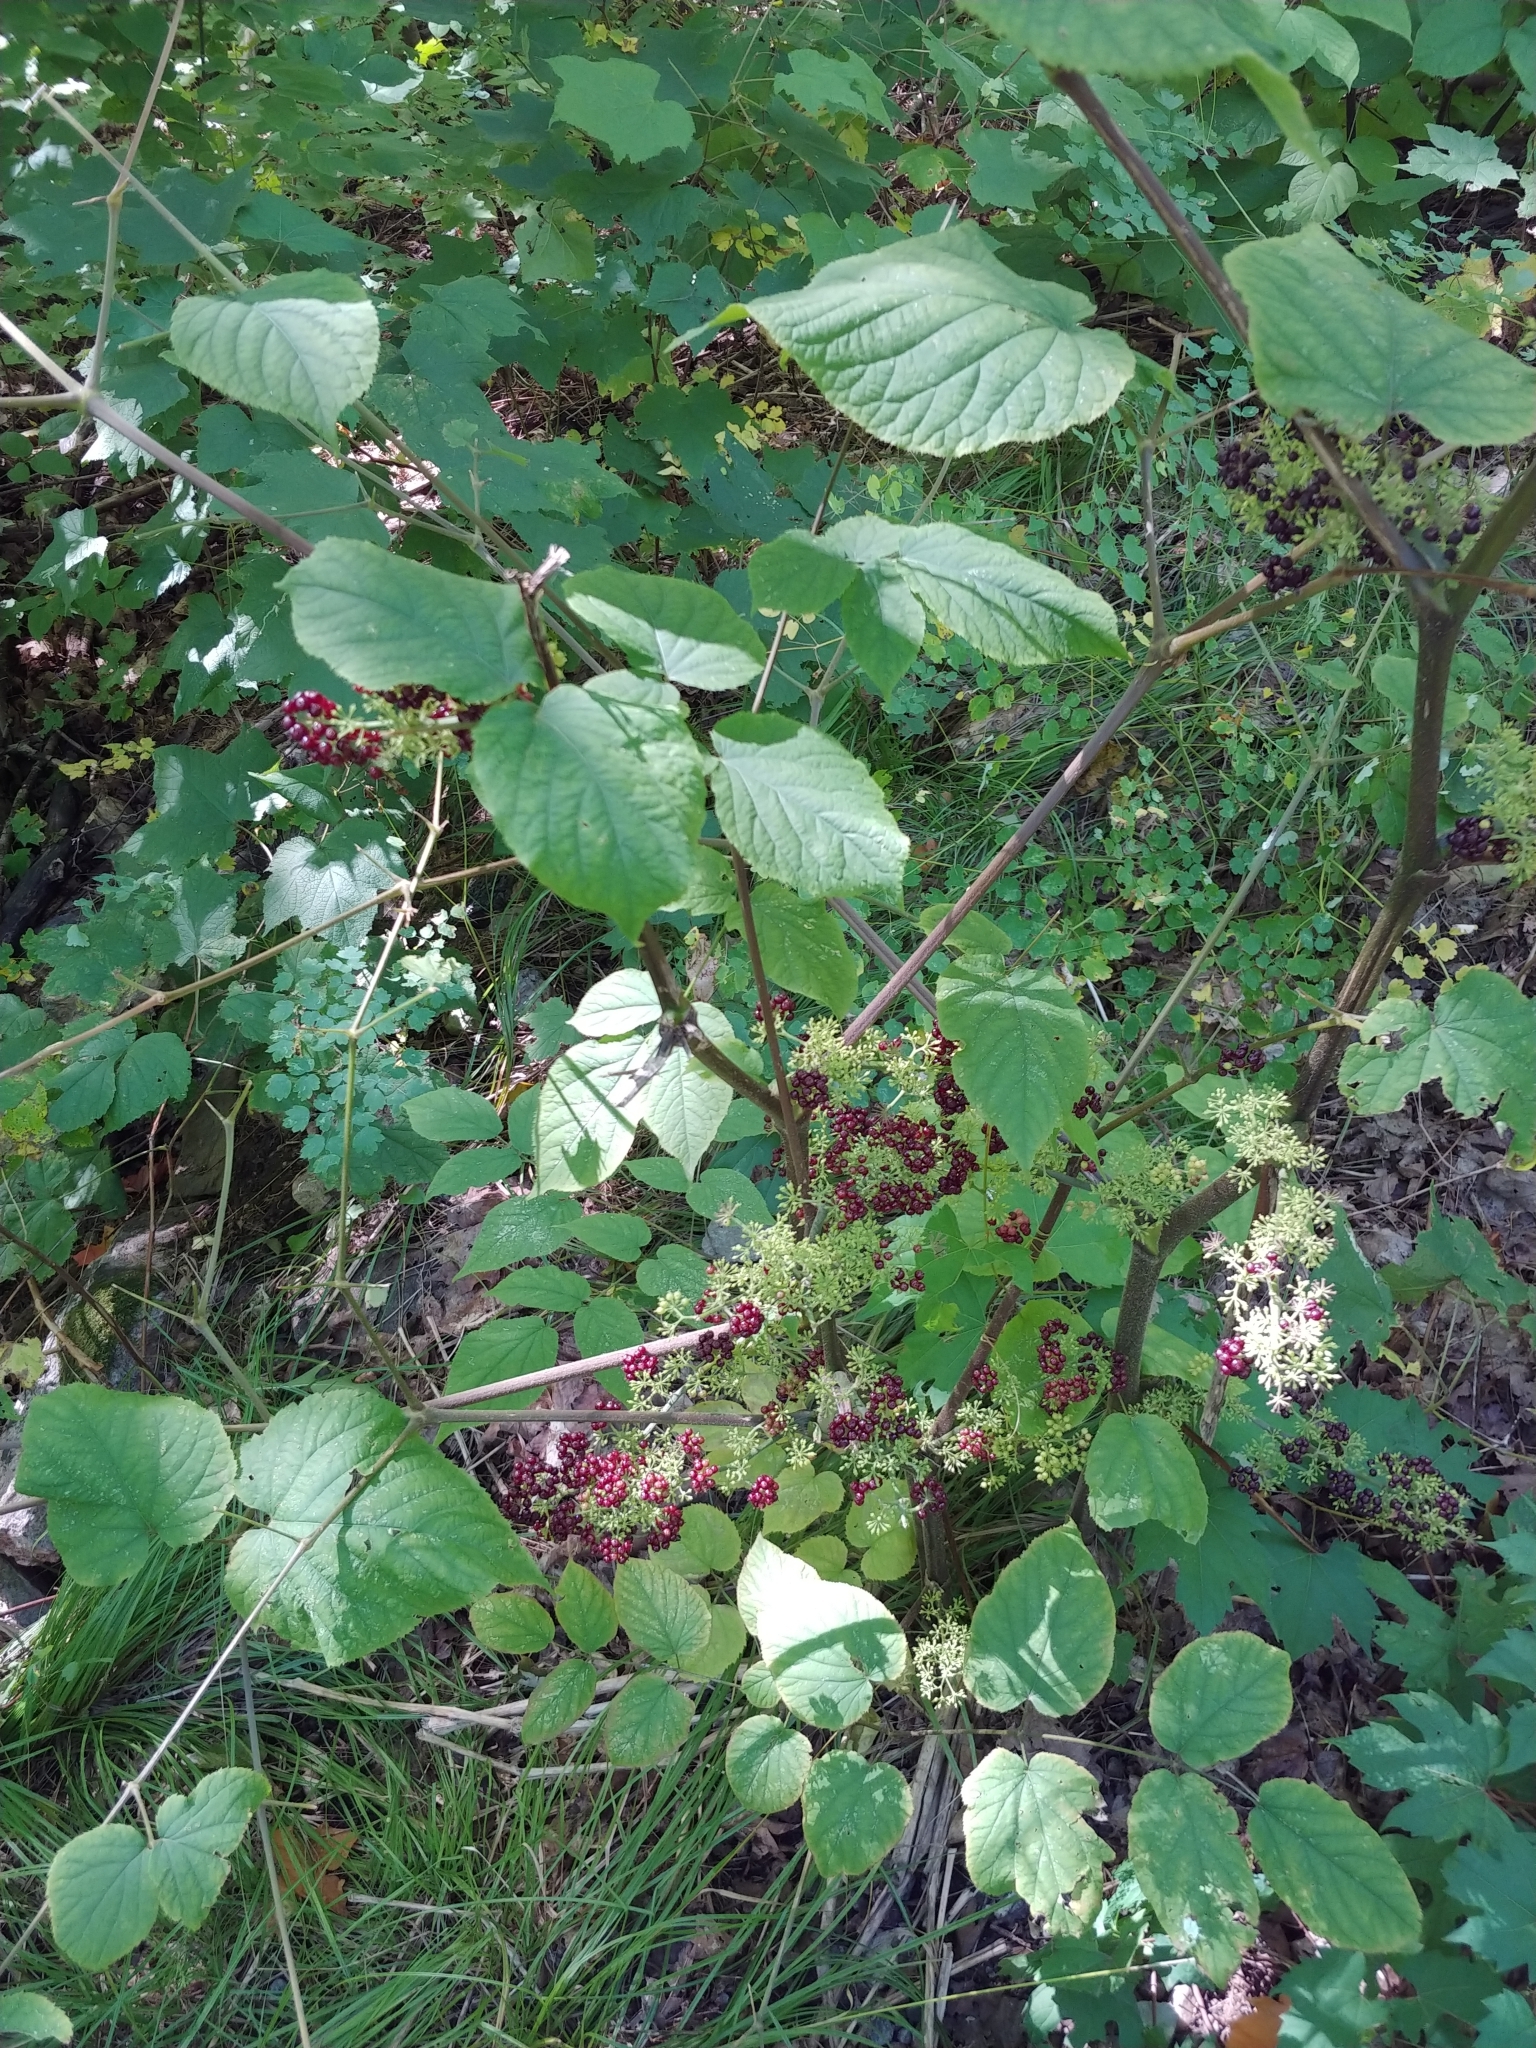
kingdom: Plantae
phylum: Tracheophyta
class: Magnoliopsida
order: Apiales
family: Araliaceae
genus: Aralia
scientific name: Aralia racemosa
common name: American-spikenard
